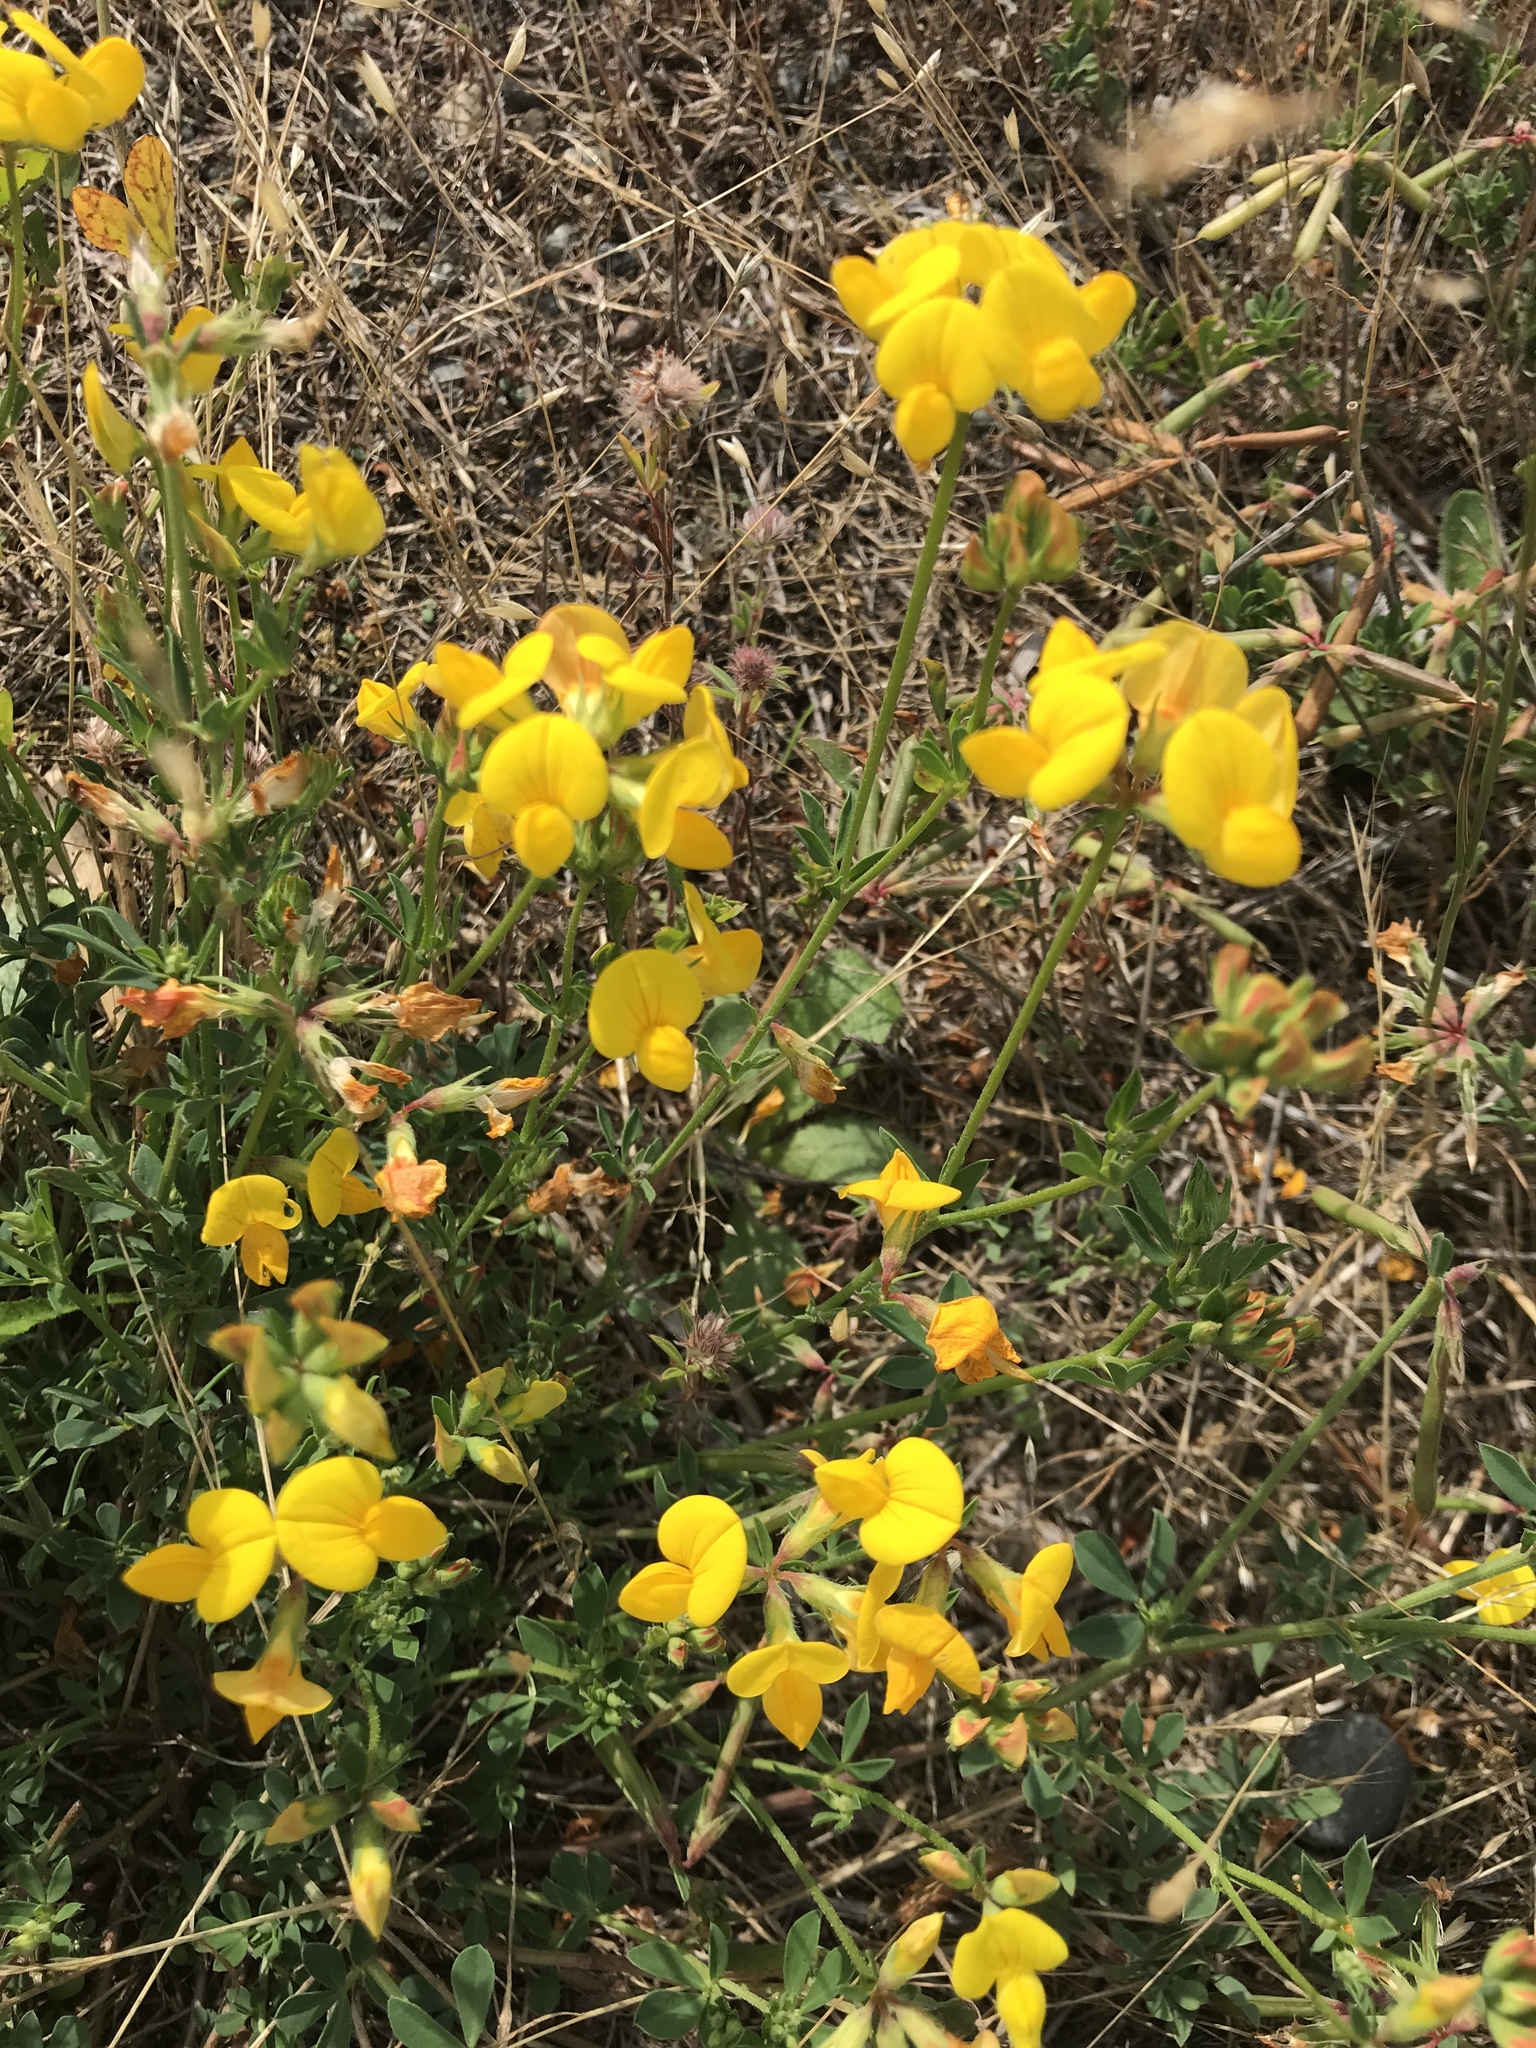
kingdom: Plantae
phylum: Tracheophyta
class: Magnoliopsida
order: Fabales
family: Fabaceae
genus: Lotus
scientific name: Lotus corniculatus
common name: Common bird's-foot-trefoil
